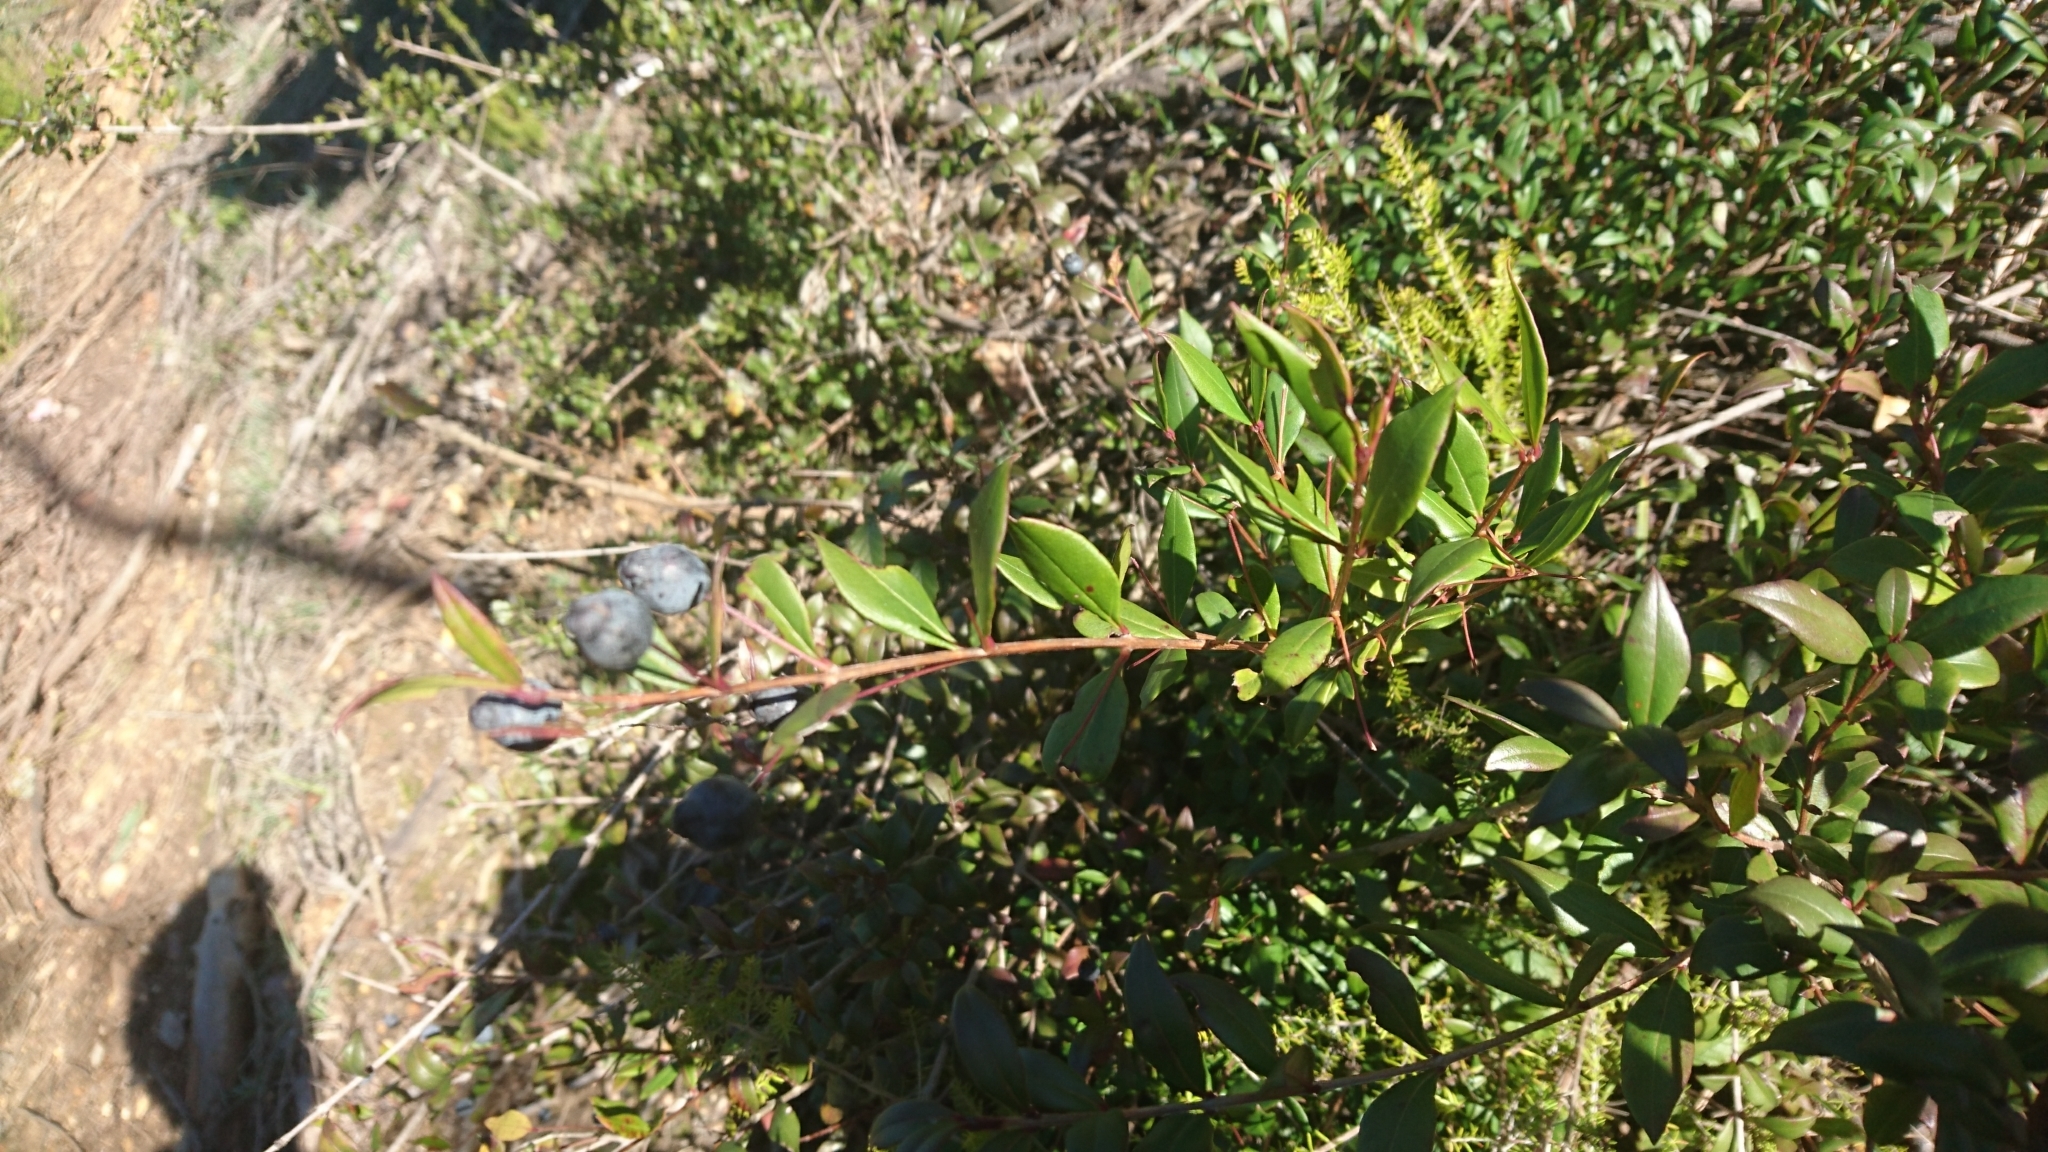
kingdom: Plantae
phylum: Tracheophyta
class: Magnoliopsida
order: Myrtales
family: Myrtaceae
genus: Myrtus
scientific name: Myrtus communis
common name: Myrtle
